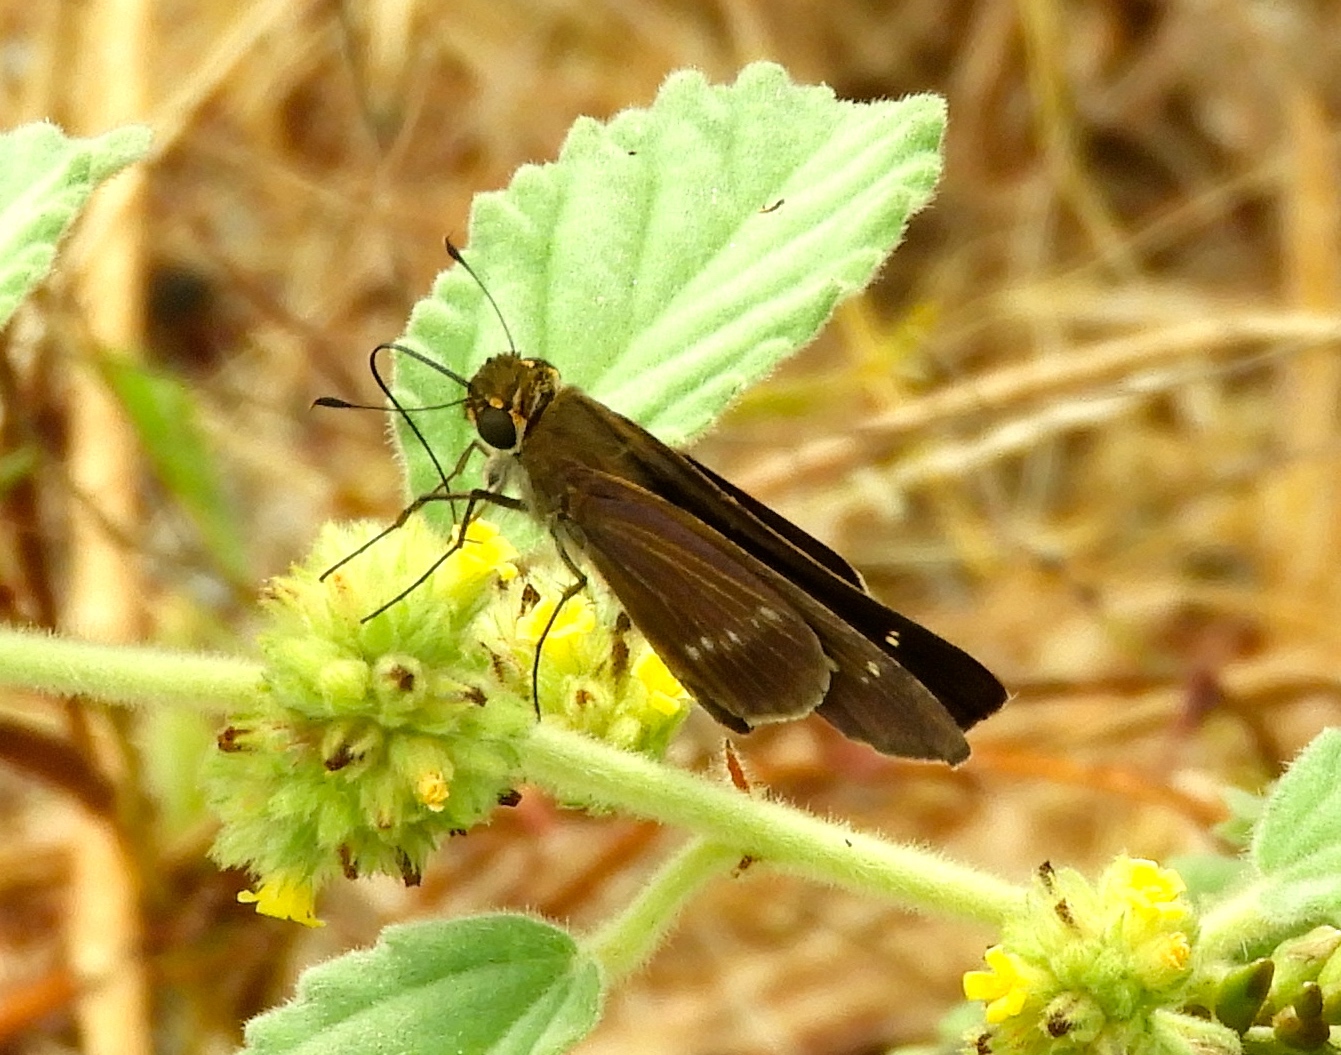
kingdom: Animalia
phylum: Arthropoda
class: Insecta
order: Lepidoptera
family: Hesperiidae
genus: Turesis
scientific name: Turesis lucas
